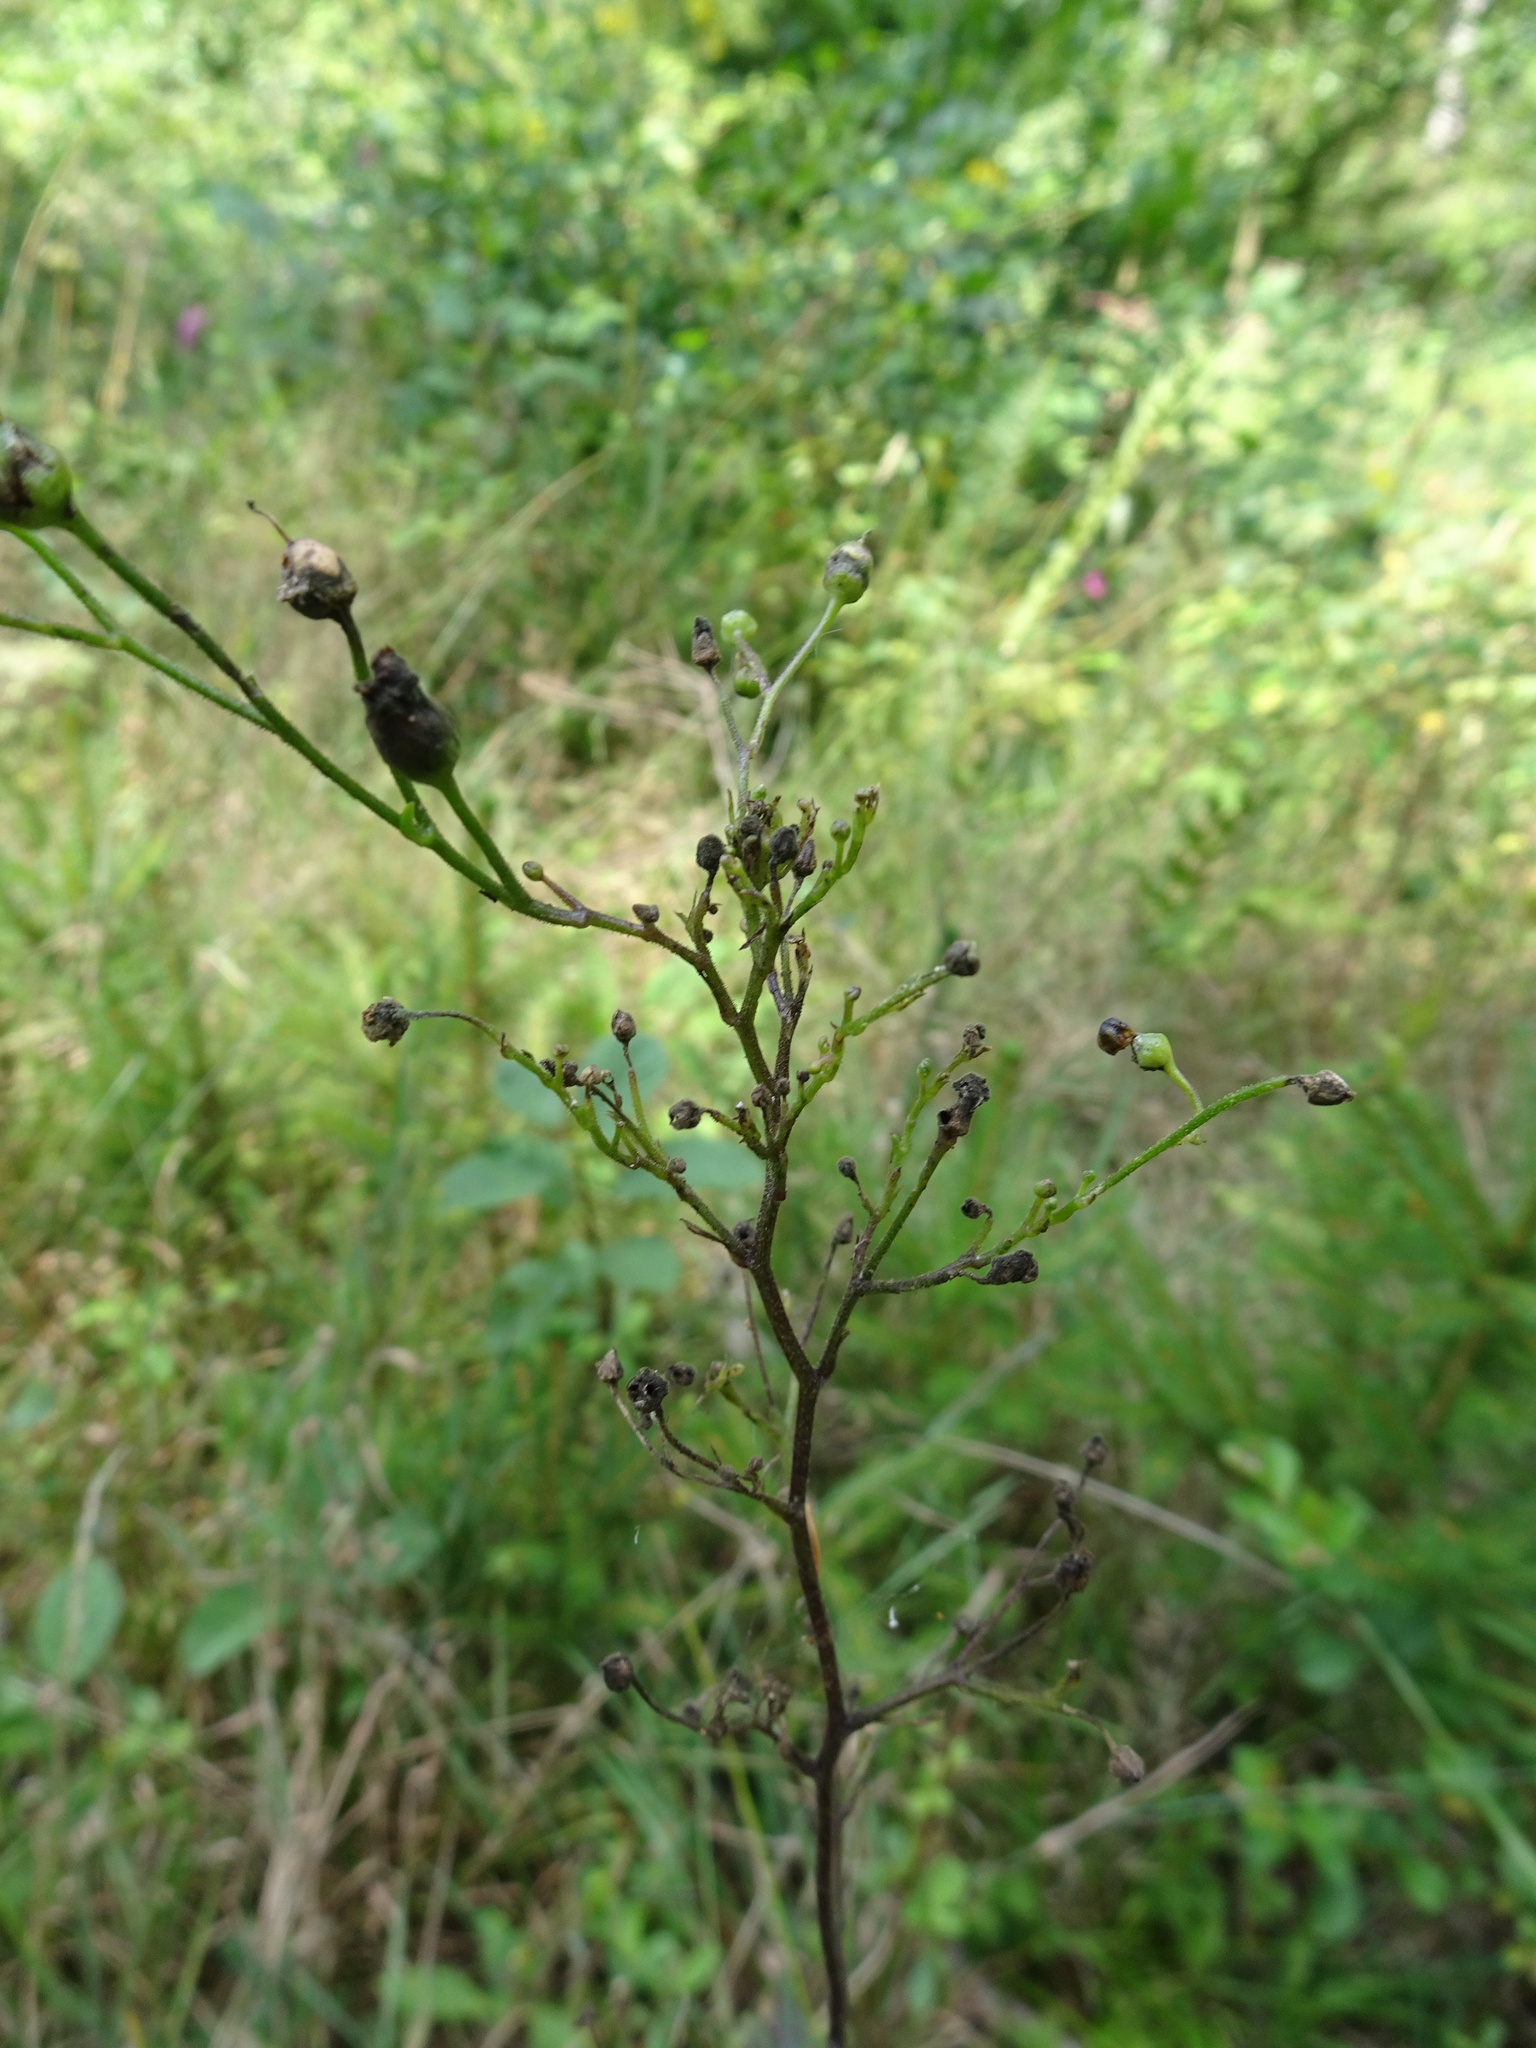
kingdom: Plantae
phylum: Tracheophyta
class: Magnoliopsida
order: Lamiales
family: Scrophulariaceae
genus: Scrophularia
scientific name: Scrophularia nodosa
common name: Common figwort
